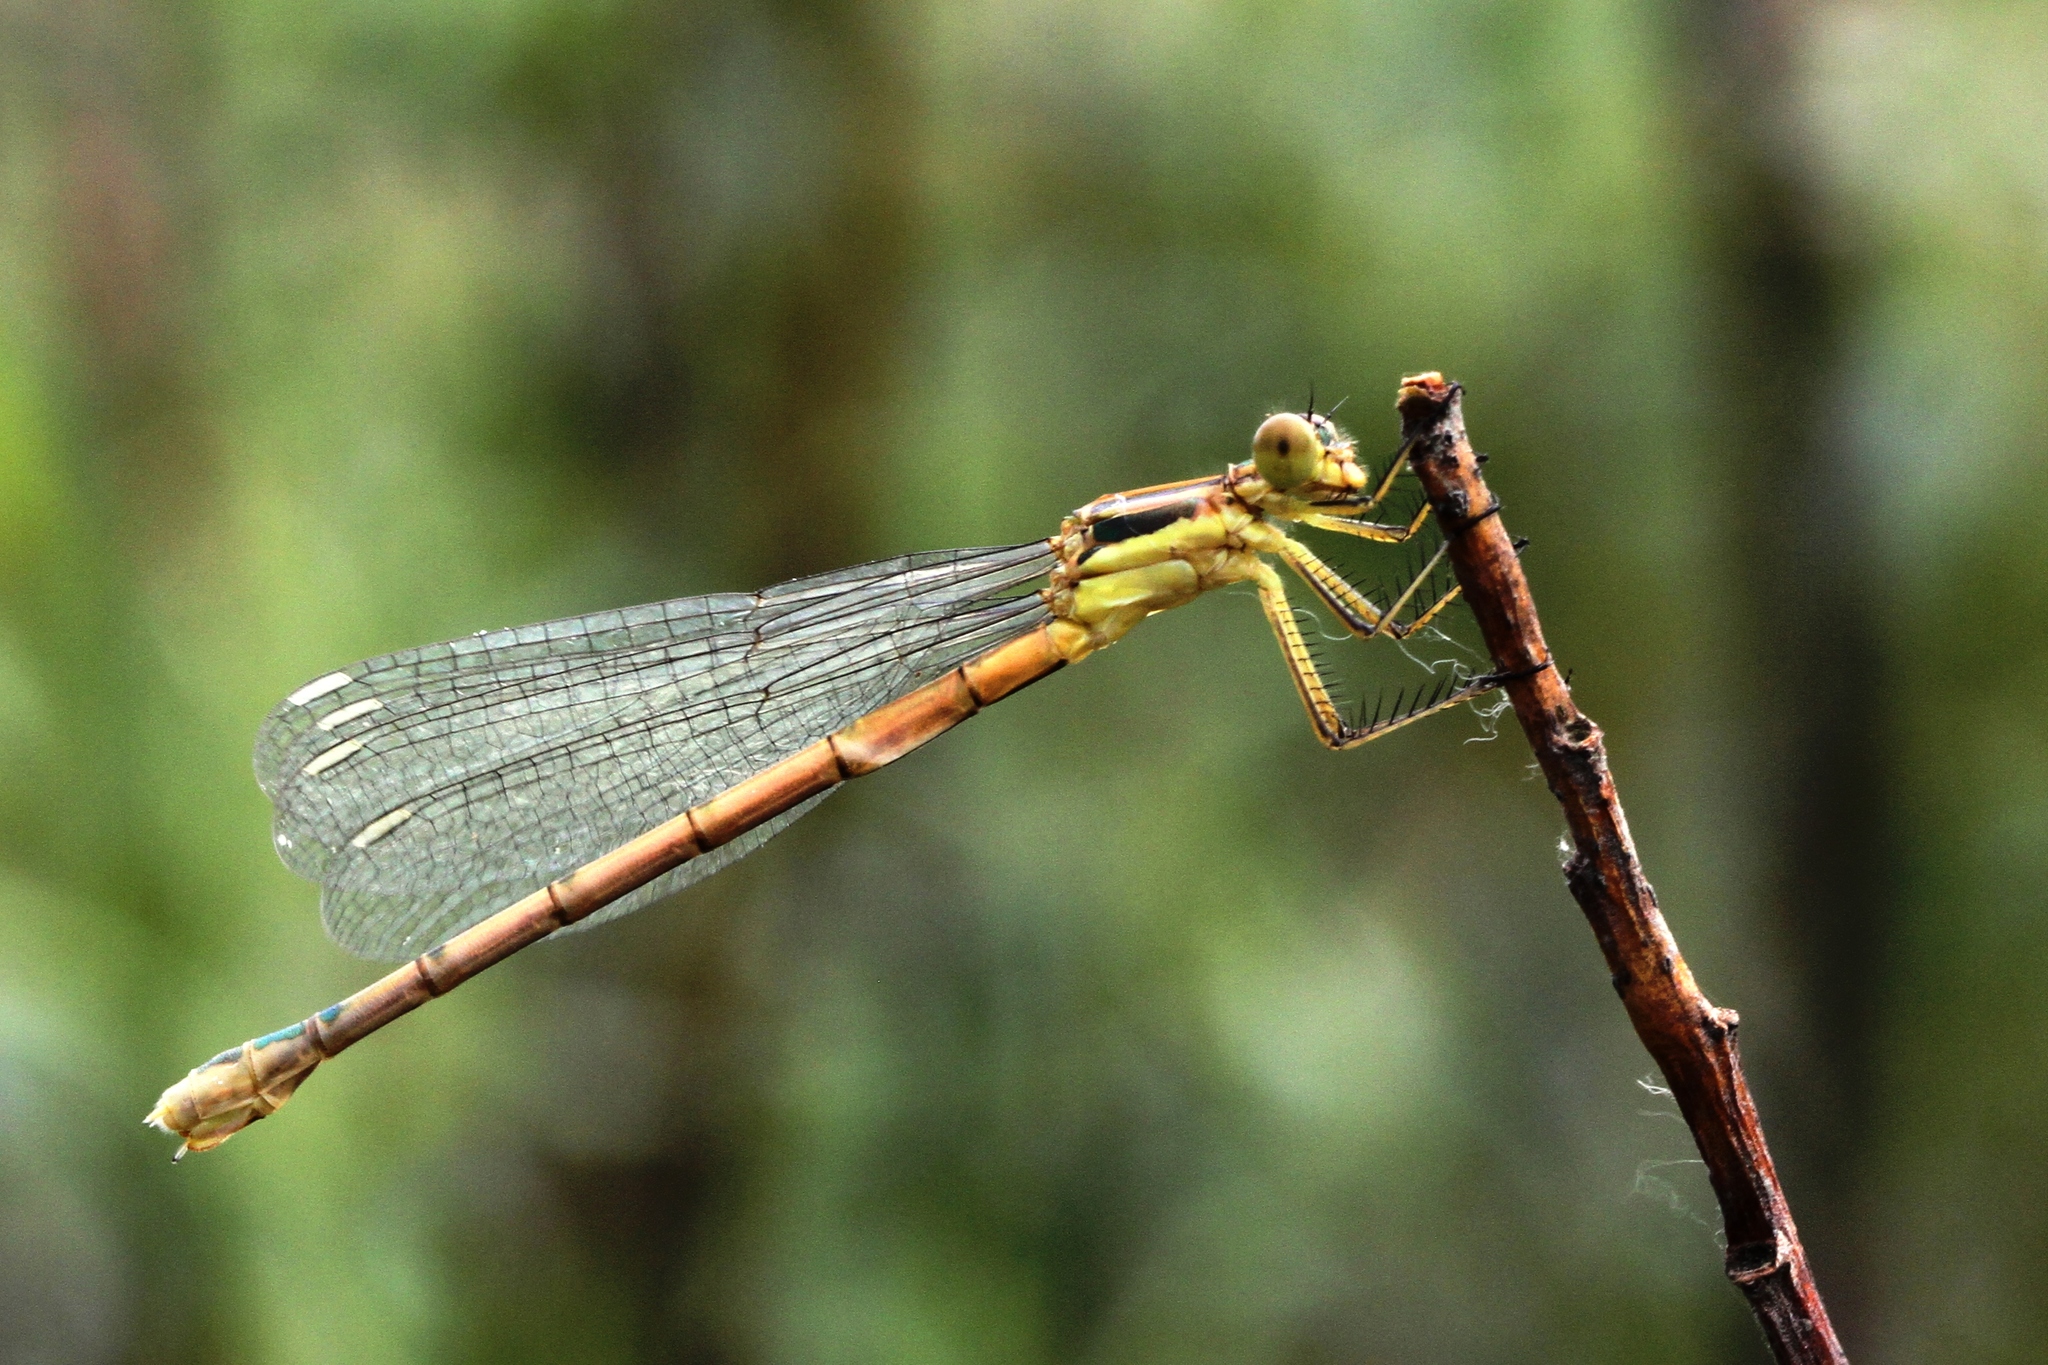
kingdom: Animalia
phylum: Arthropoda
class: Insecta
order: Odonata
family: Lestidae
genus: Lestes
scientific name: Lestes dryas
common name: Scarce emerald damselfly
